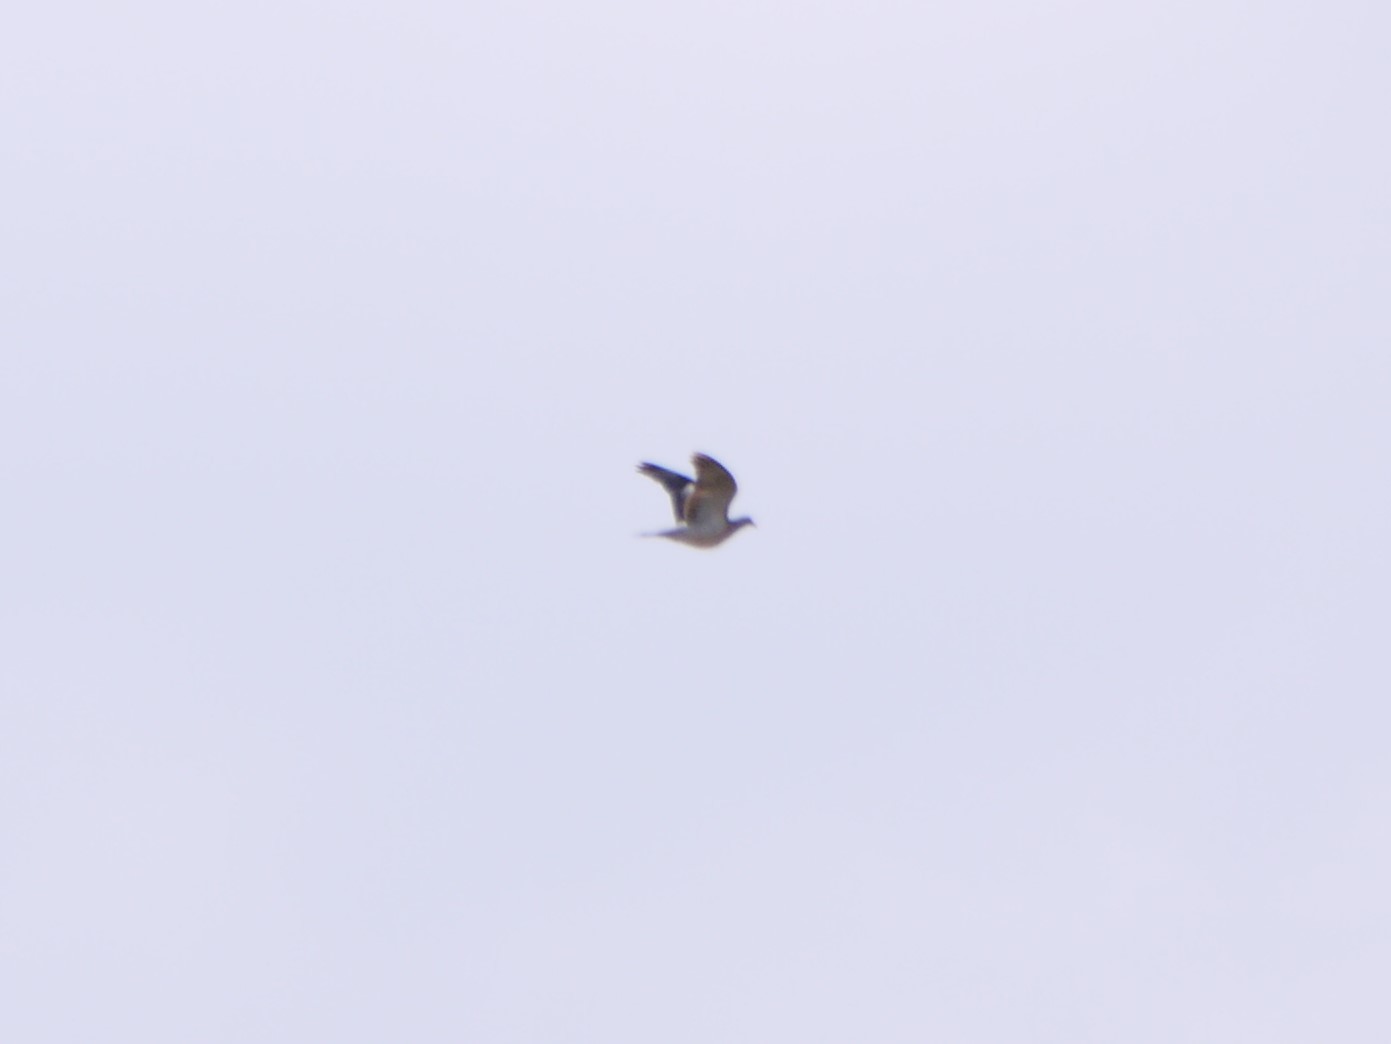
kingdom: Animalia
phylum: Chordata
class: Aves
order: Columbiformes
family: Columbidae
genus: Columba
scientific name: Columba palumbus
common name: Common wood pigeon
